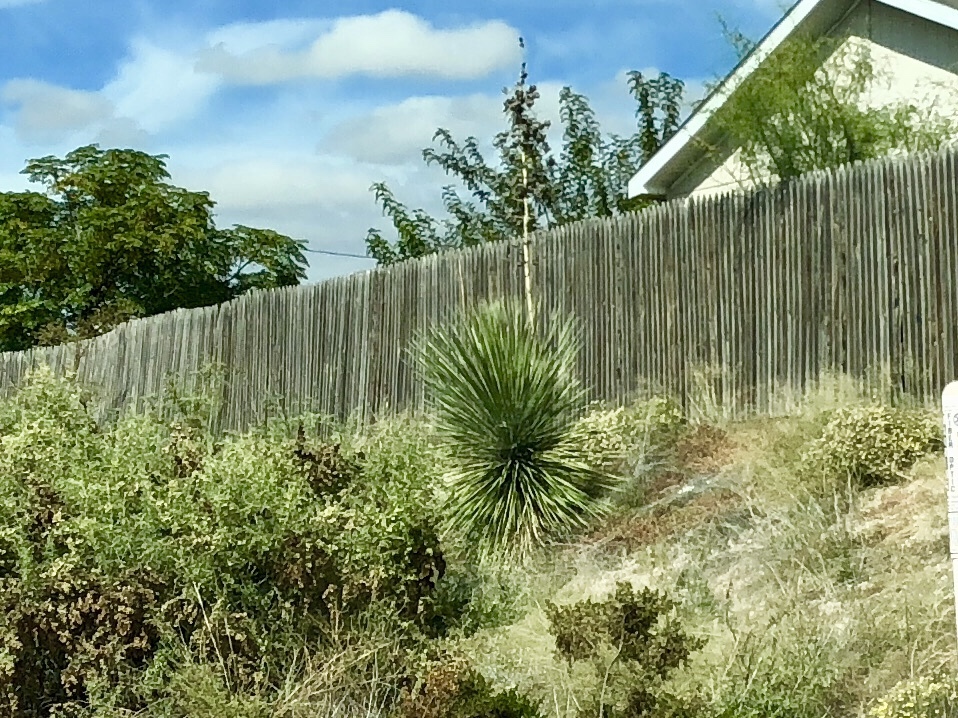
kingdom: Plantae
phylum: Tracheophyta
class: Liliopsida
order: Asparagales
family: Asparagaceae
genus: Yucca
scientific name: Yucca elata
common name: Palmella
